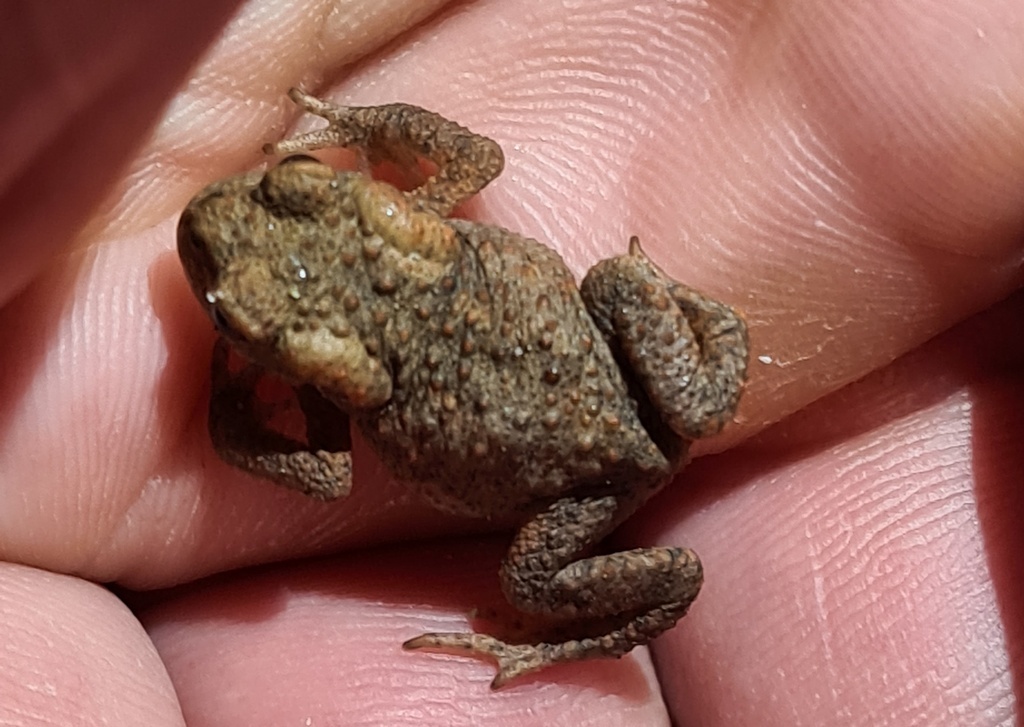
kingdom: Animalia
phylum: Chordata
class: Amphibia
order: Anura
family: Bufonidae
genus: Bufo
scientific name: Bufo bufo
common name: Common toad
